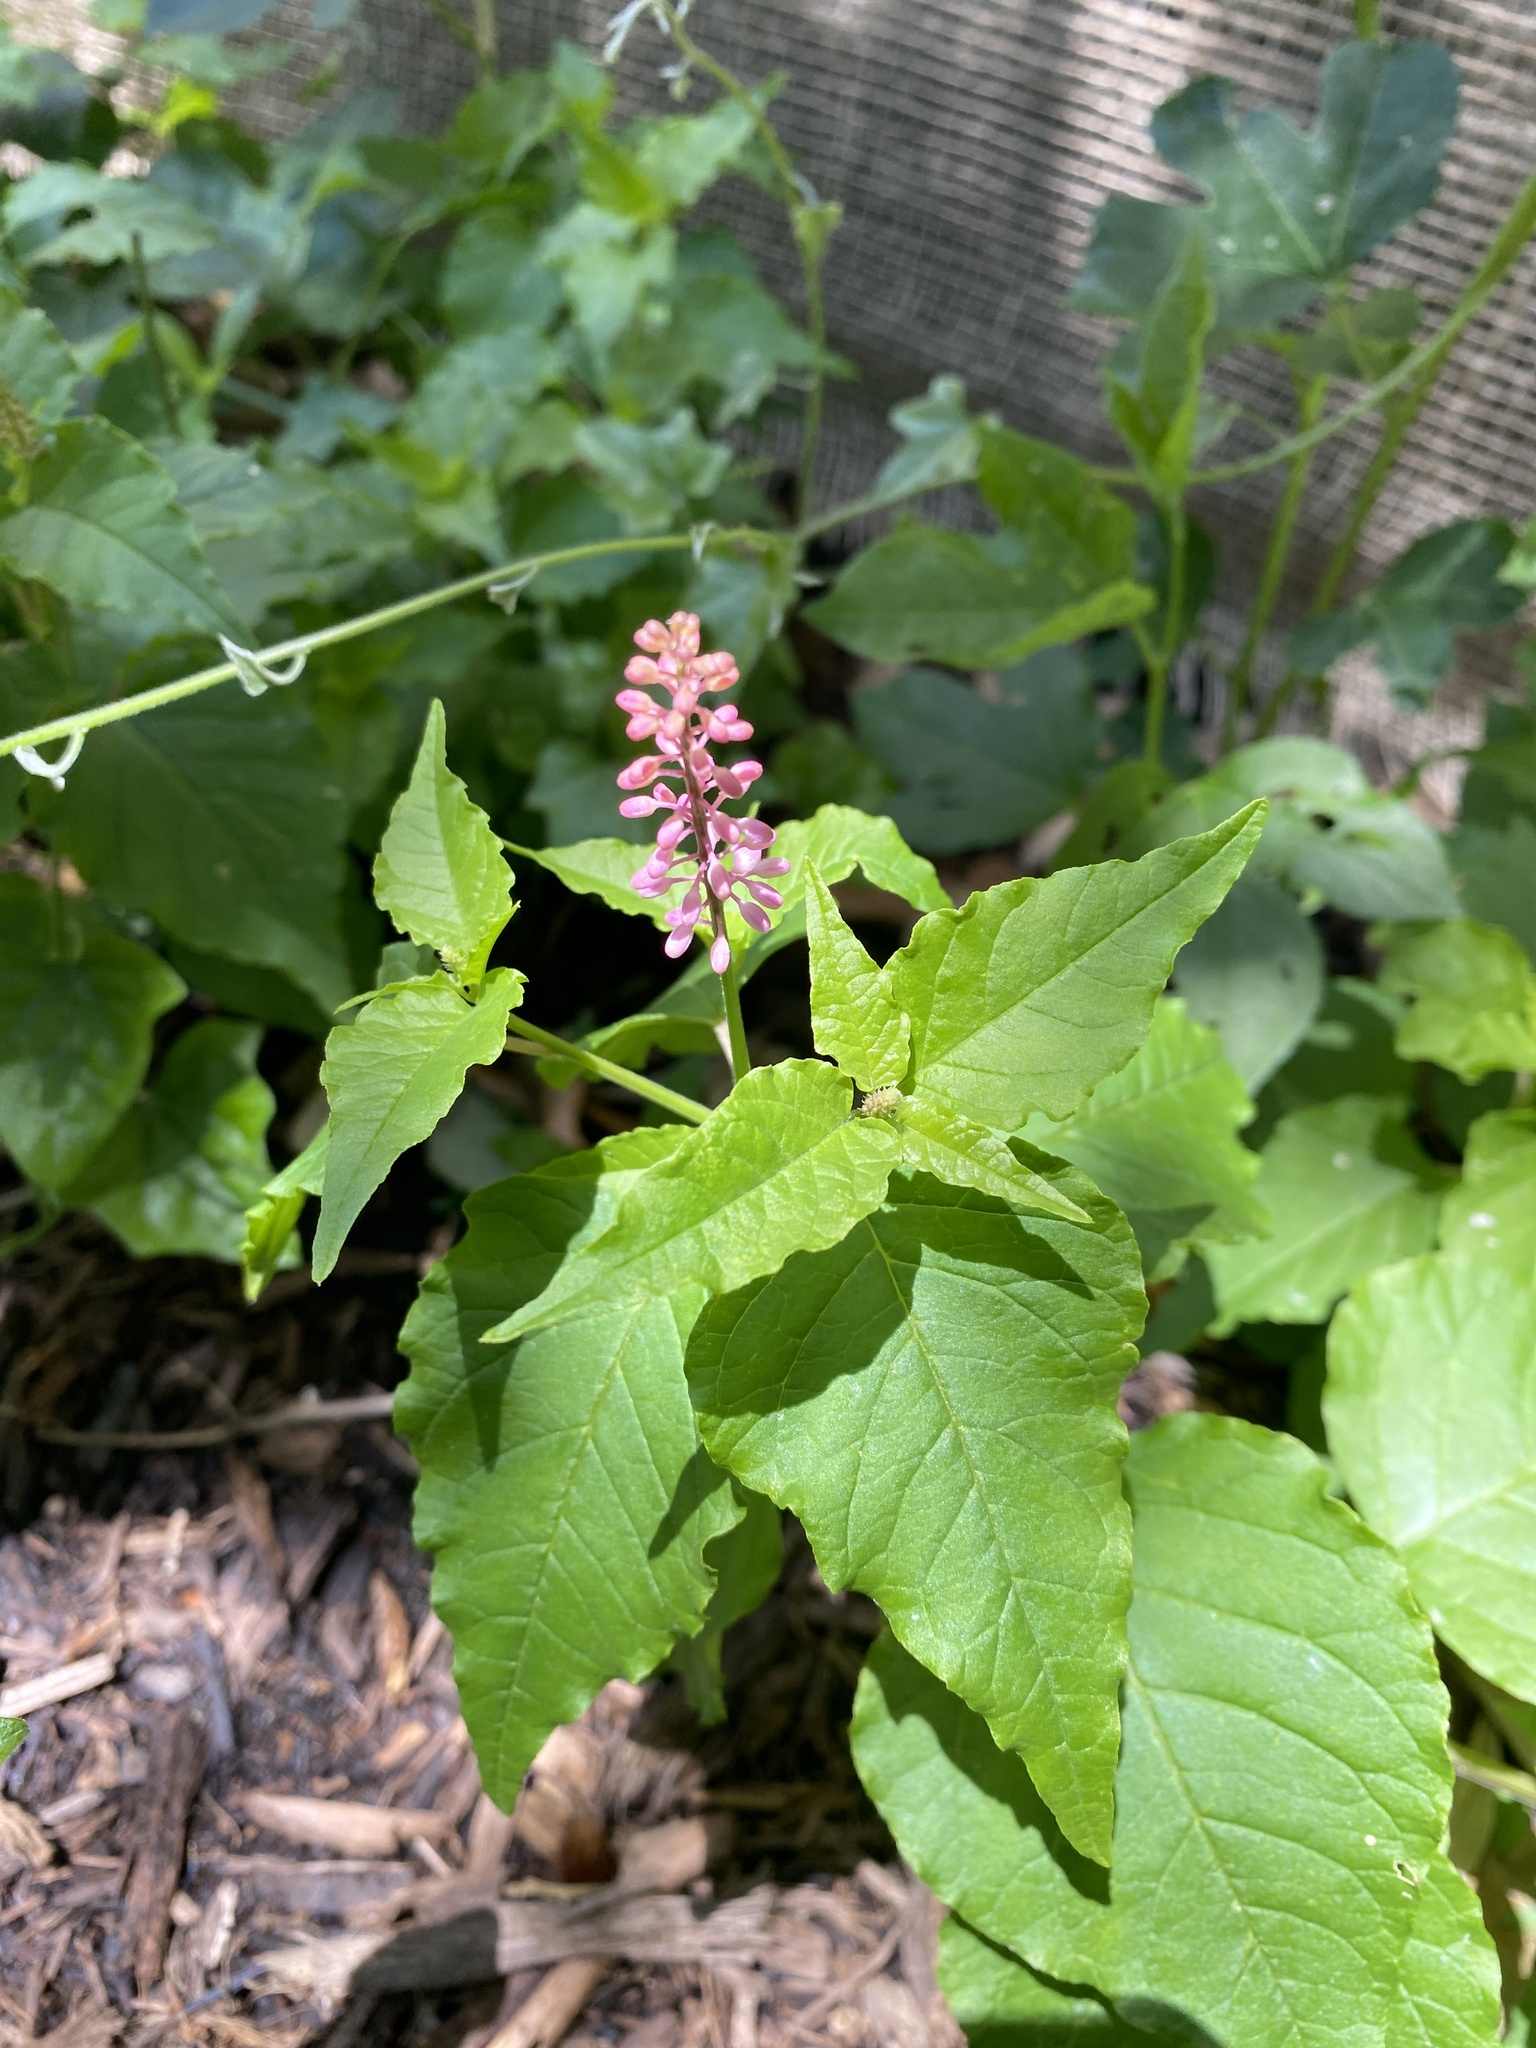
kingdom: Plantae
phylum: Tracheophyta
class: Magnoliopsida
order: Caryophyllales
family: Phytolaccaceae
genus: Rivina
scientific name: Rivina humilis
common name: Rougeplant
